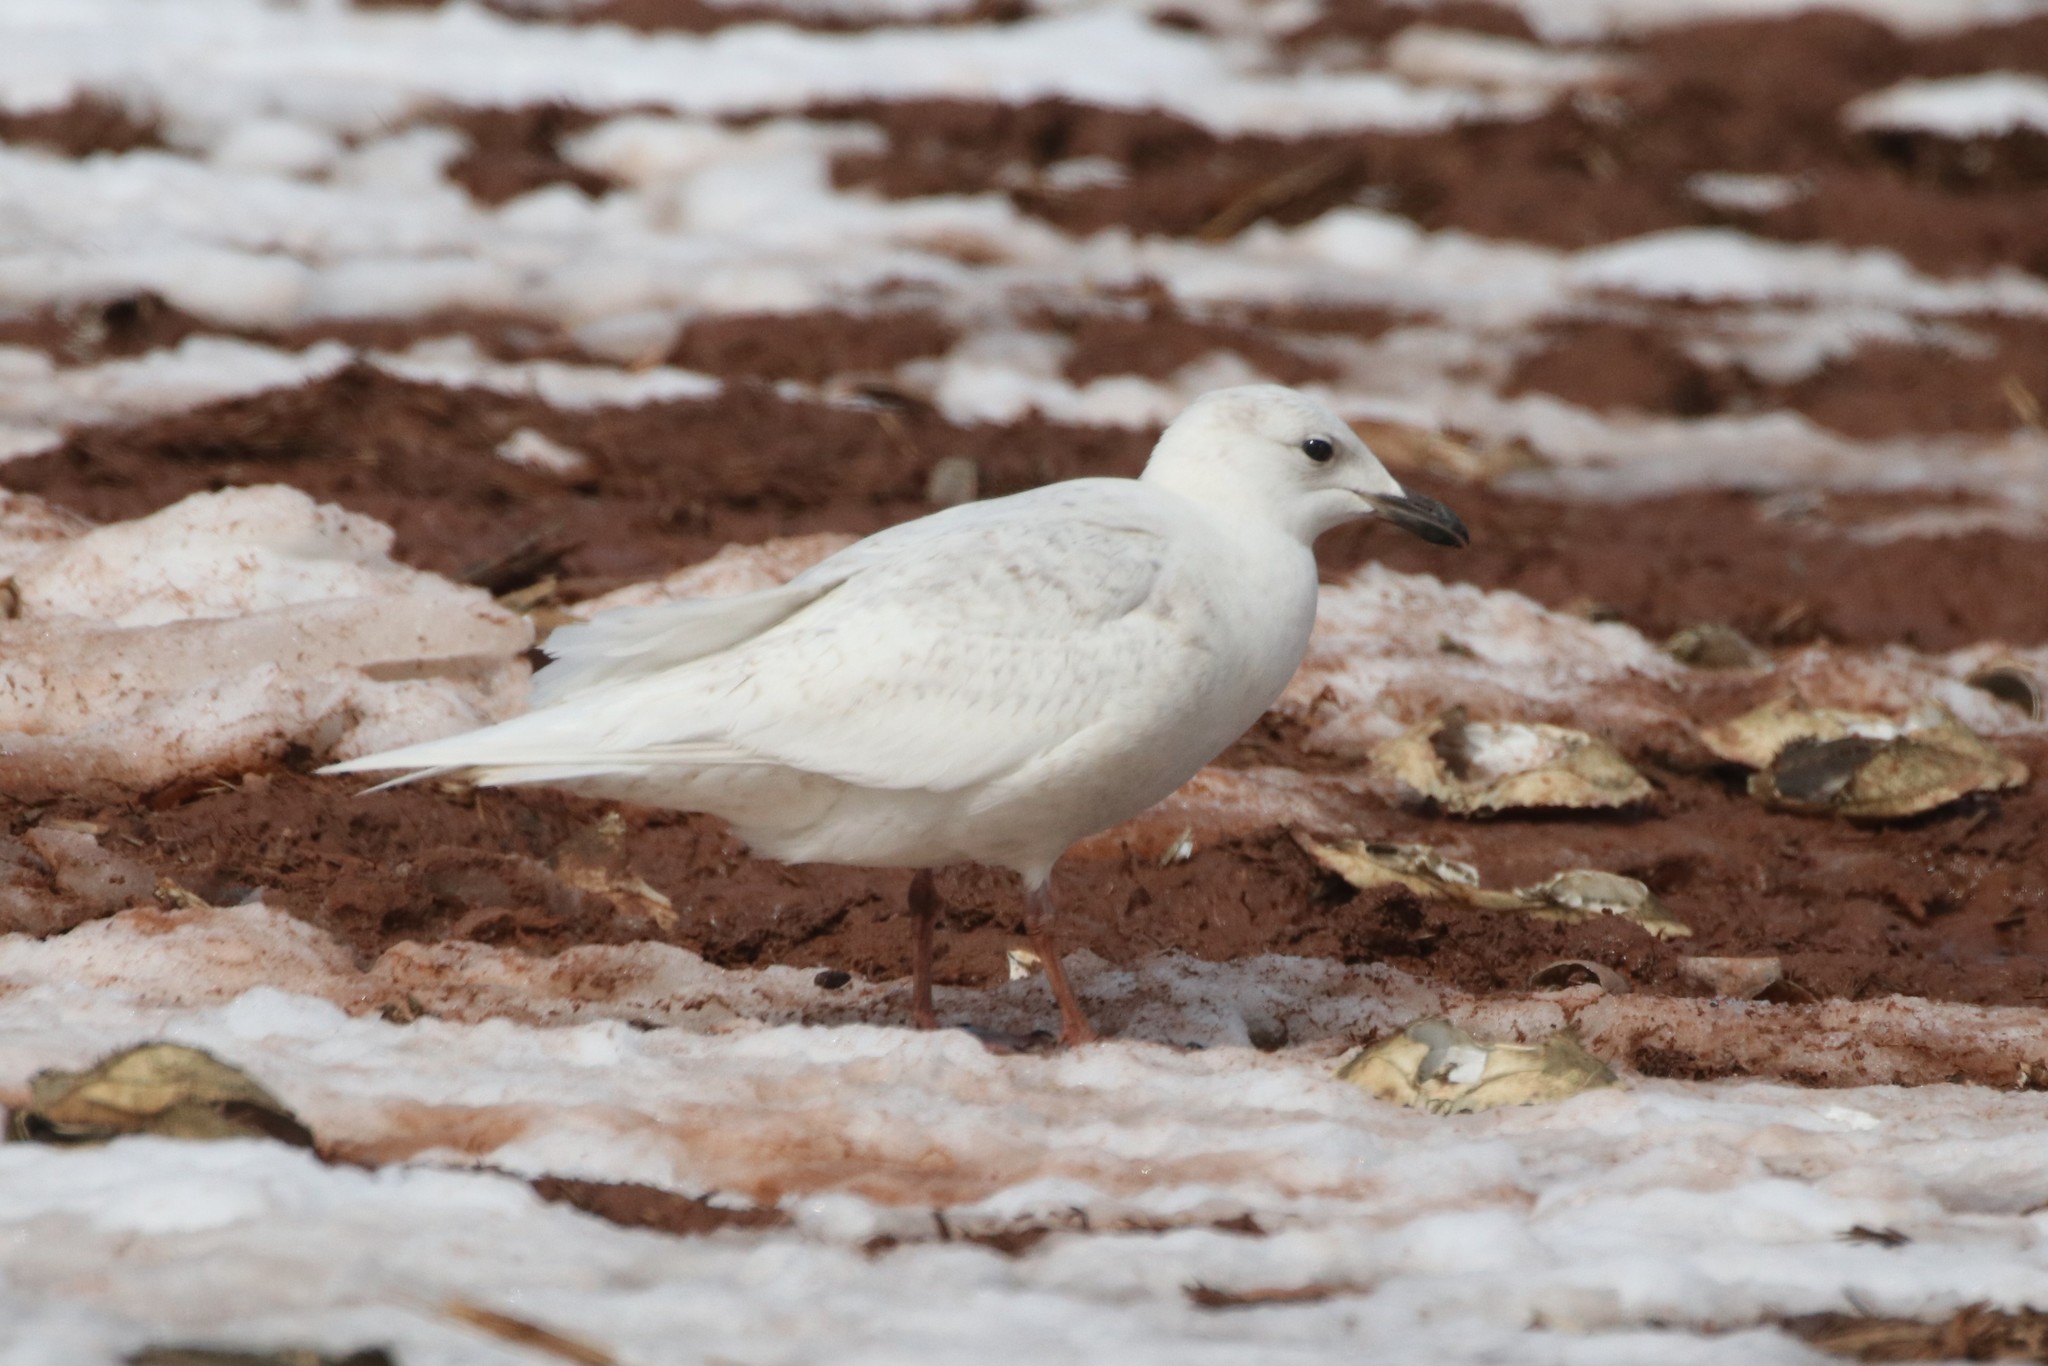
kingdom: Animalia
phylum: Chordata
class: Aves
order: Charadriiformes
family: Laridae
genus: Larus
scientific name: Larus glaucoides
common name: Iceland gull
